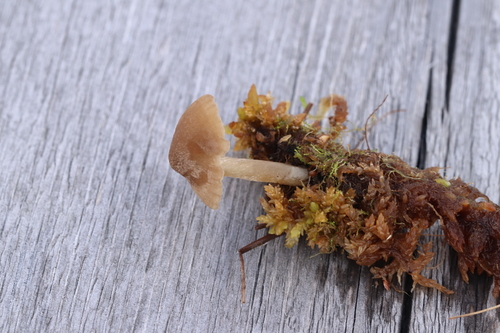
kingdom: Fungi
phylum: Basidiomycota
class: Agaricomycetes
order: Agaricales
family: Entolomataceae
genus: Entoloma
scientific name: Entoloma fernandae
